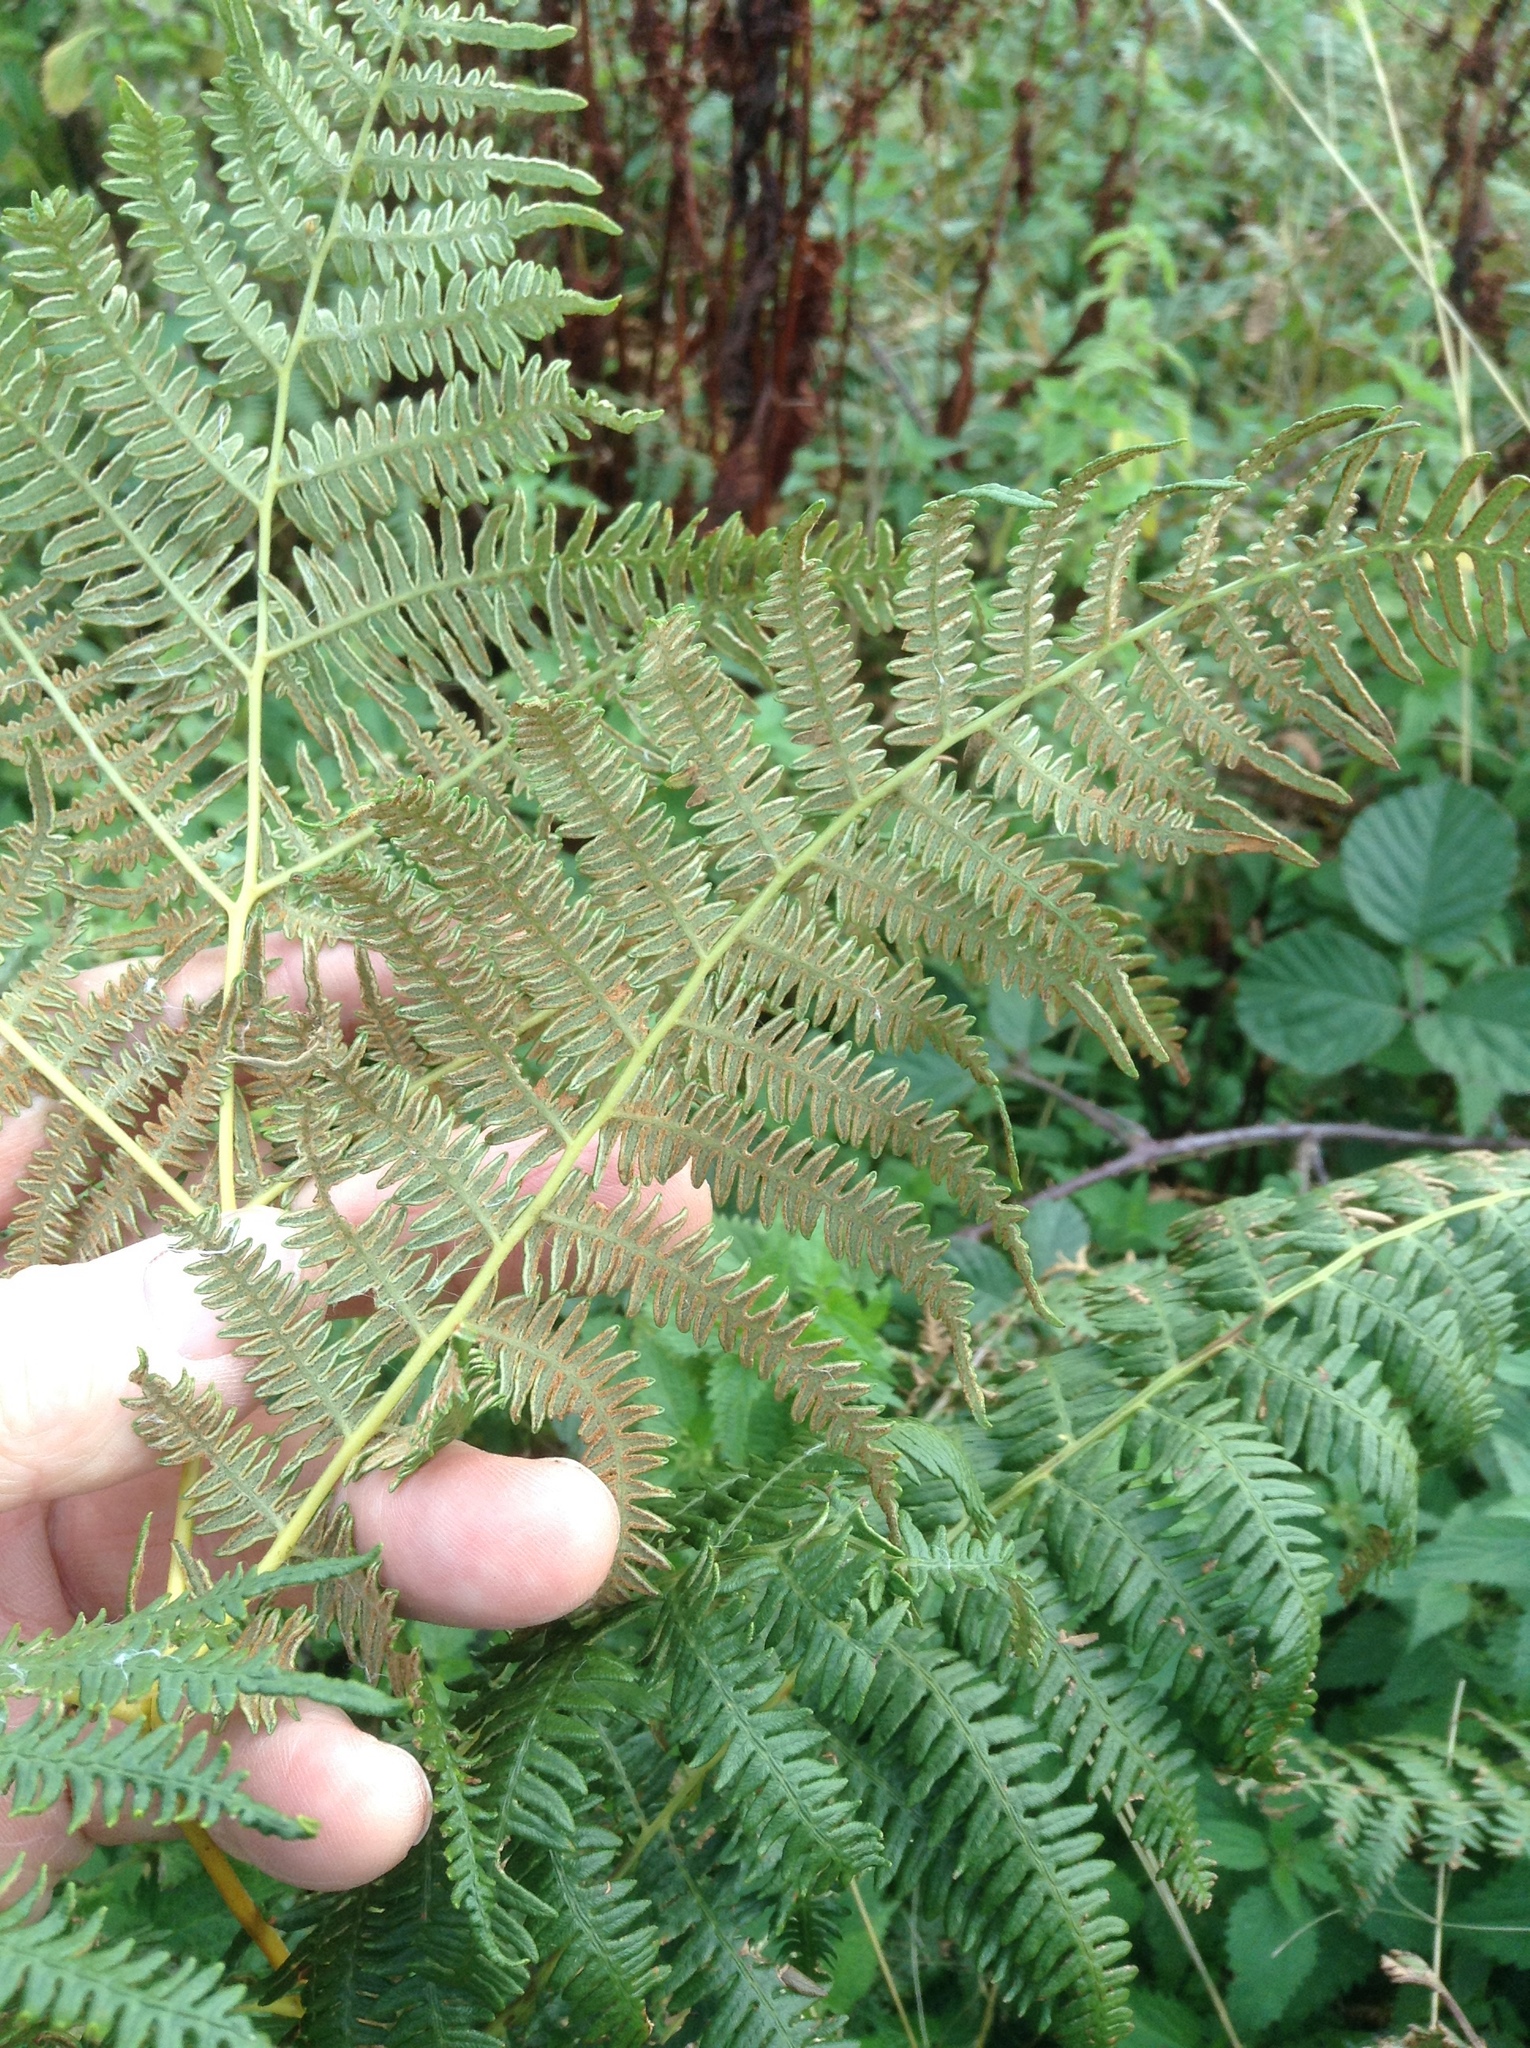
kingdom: Plantae
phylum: Tracheophyta
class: Polypodiopsida
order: Polypodiales
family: Dennstaedtiaceae
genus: Pteridium
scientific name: Pteridium aquilinum
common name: Bracken
